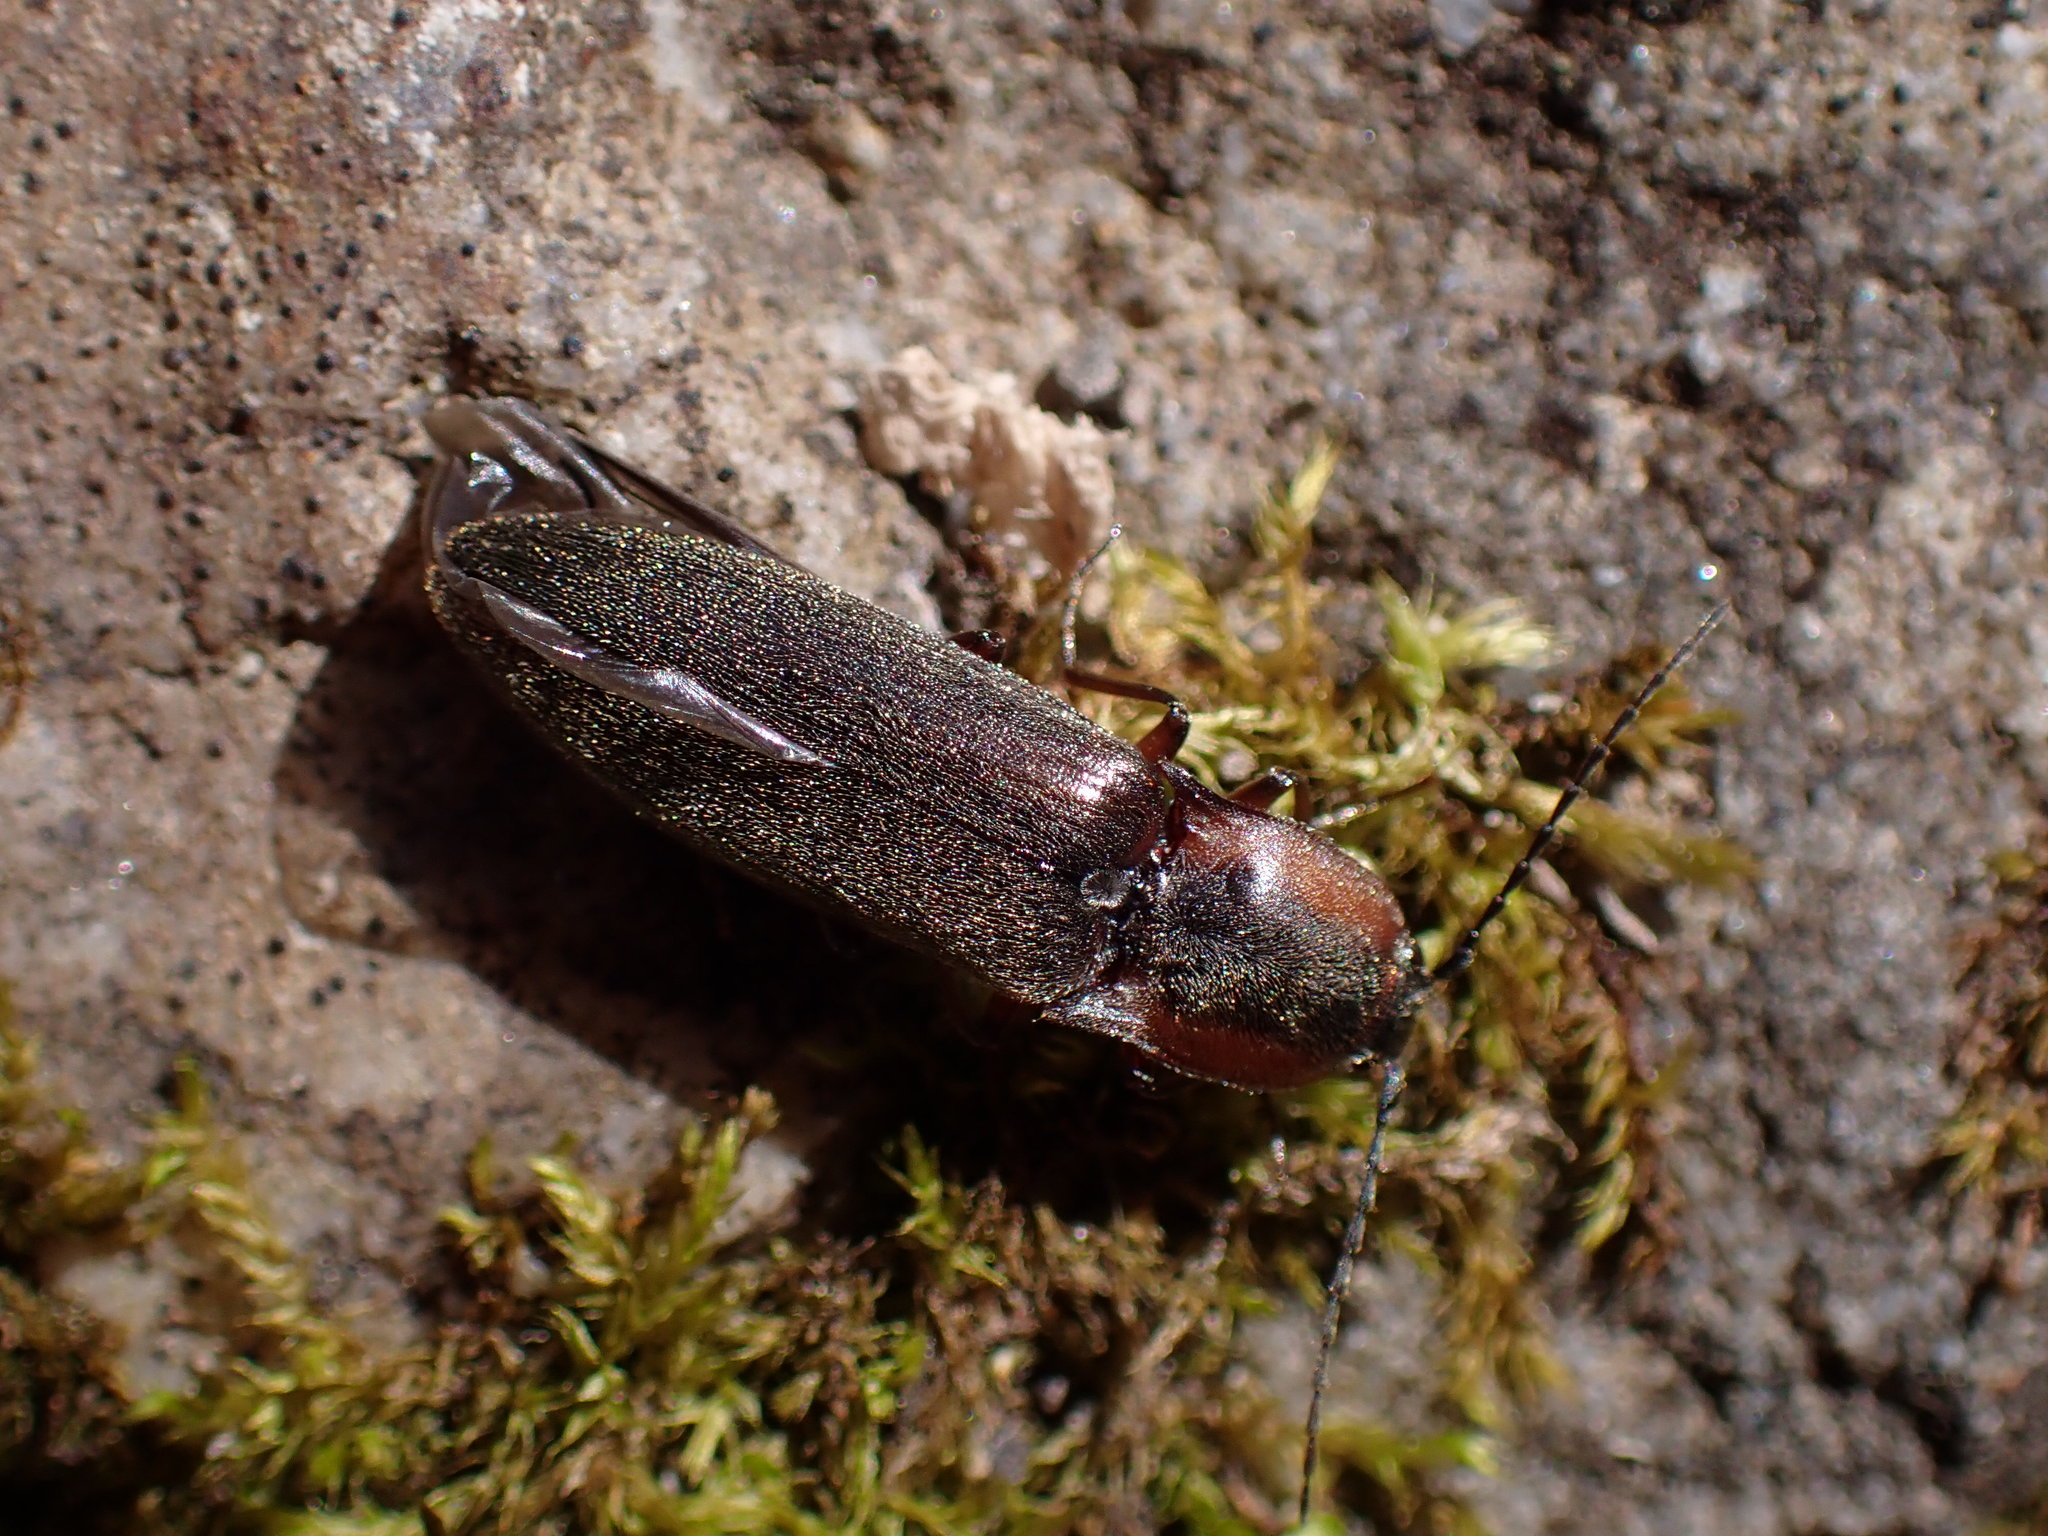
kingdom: Animalia
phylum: Arthropoda
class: Insecta
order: Coleoptera
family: Elateridae
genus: Acteniceromorphus
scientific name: Acteniceromorphus vulneratus
